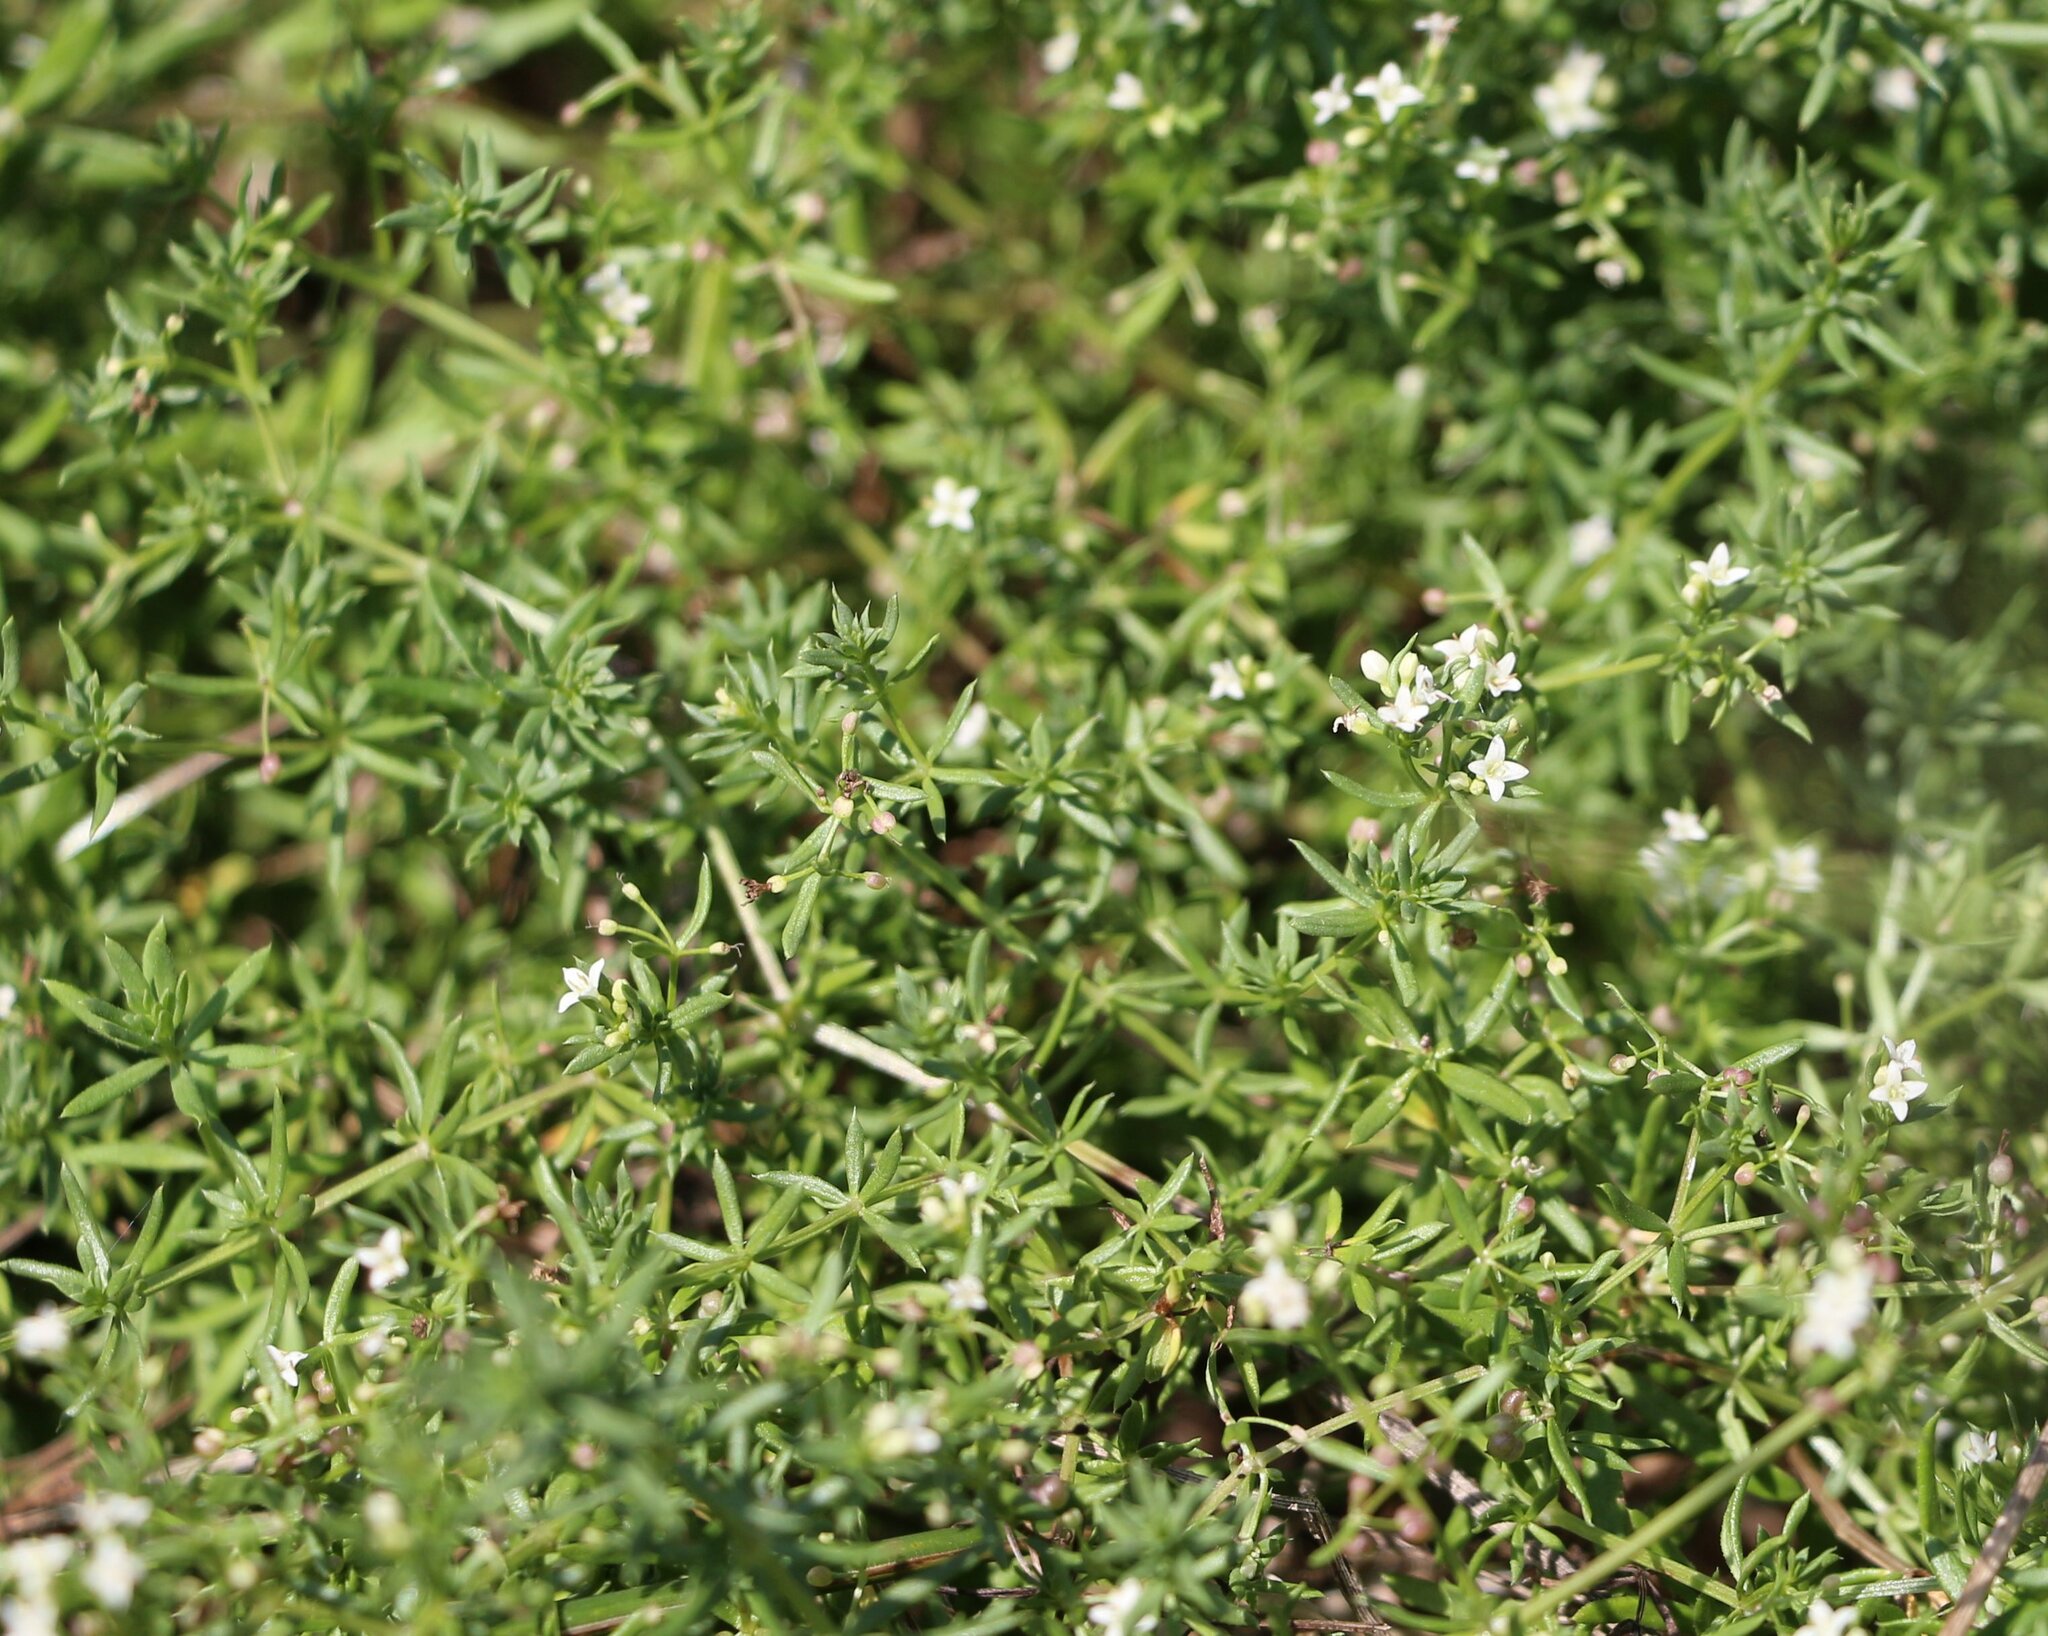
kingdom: Plantae
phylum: Tracheophyta
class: Magnoliopsida
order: Gentianales
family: Rubiaceae
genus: Galium
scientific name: Galium humifusum
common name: Spreading bedstraw
